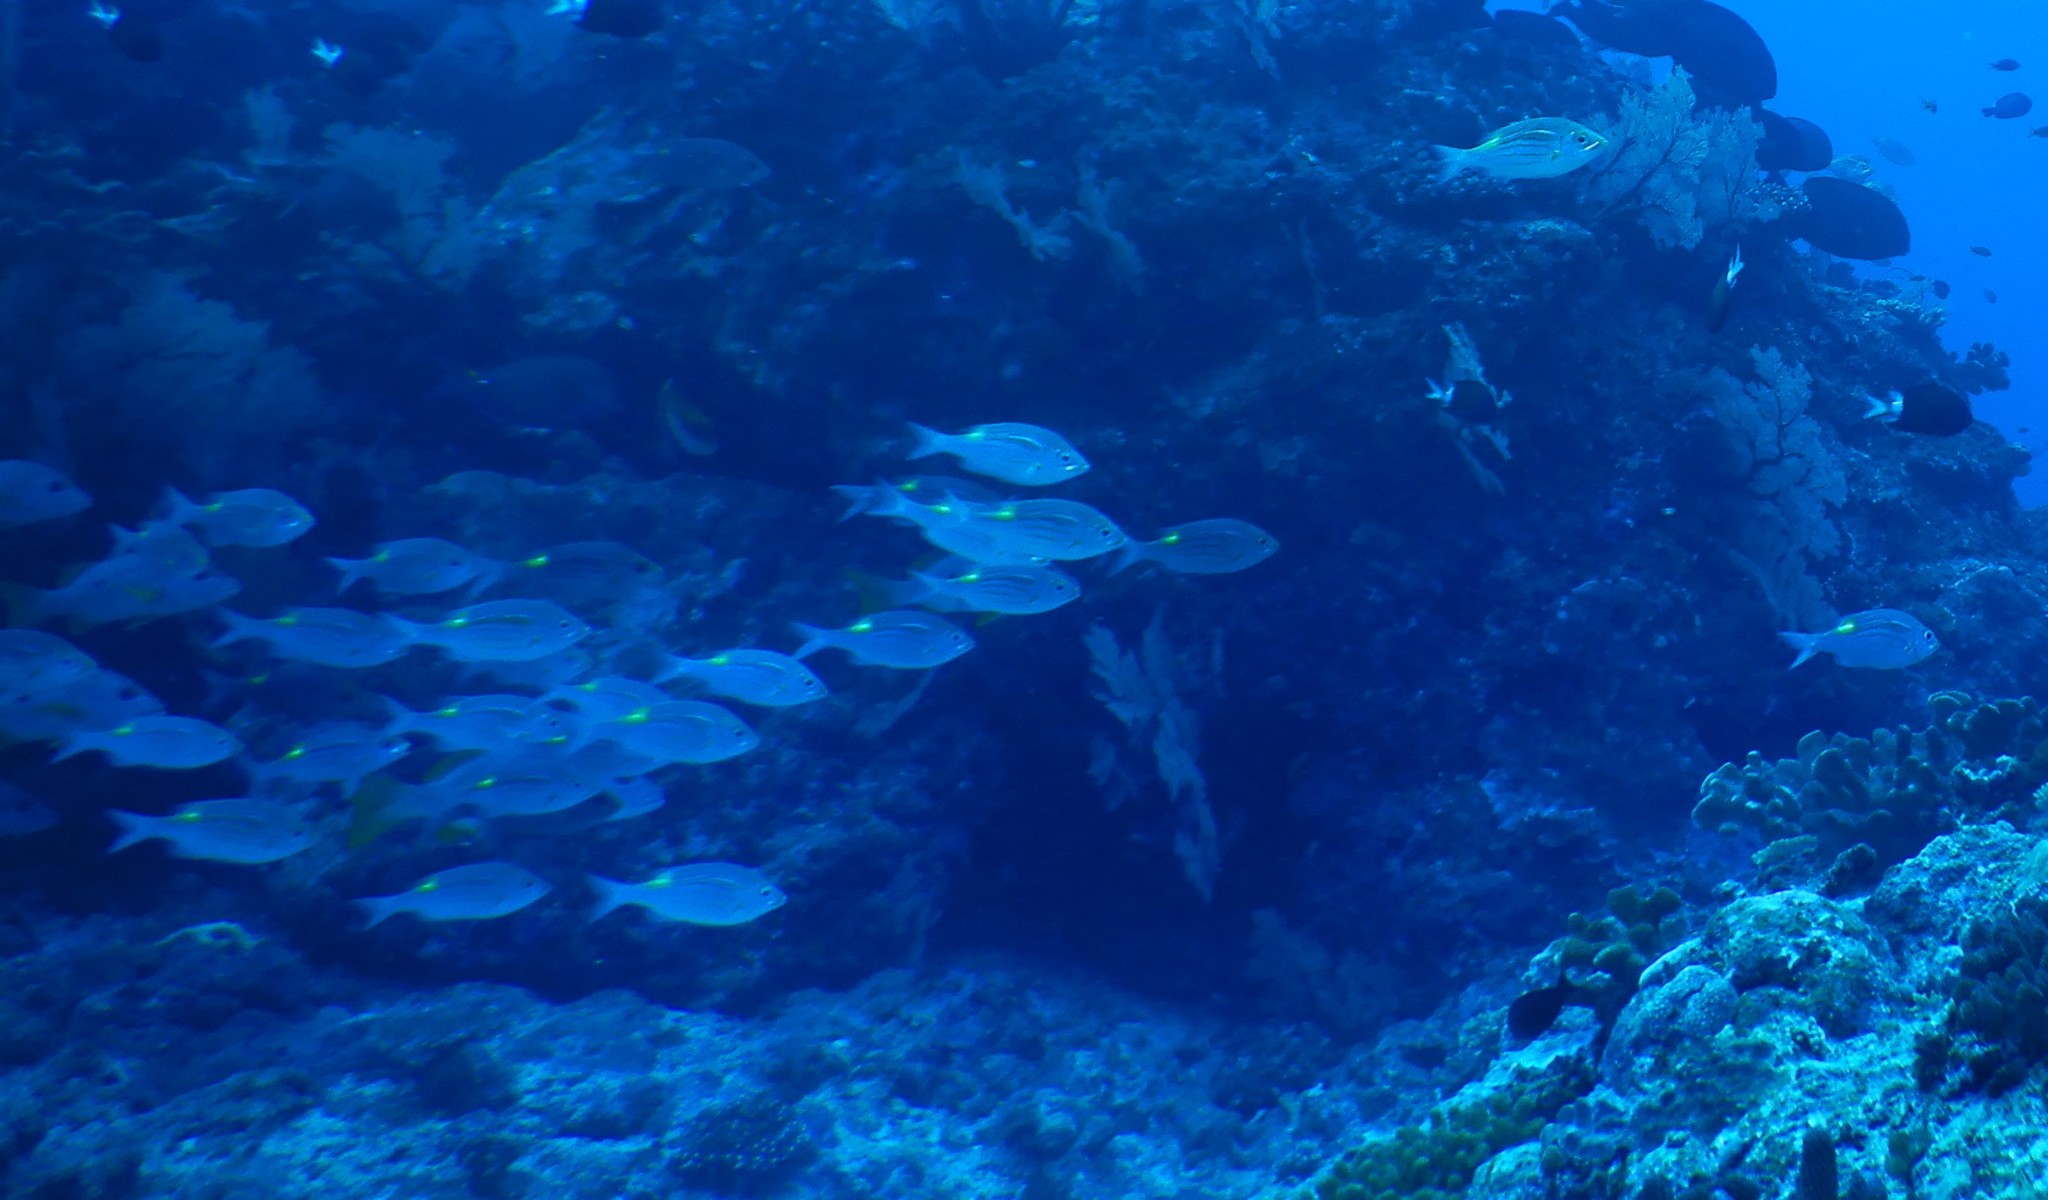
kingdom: Animalia
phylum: Chordata
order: Perciformes
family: Lethrinidae
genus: Gnathodentex
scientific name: Gnathodentex aureolineatus
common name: Gold-lined sea bream
